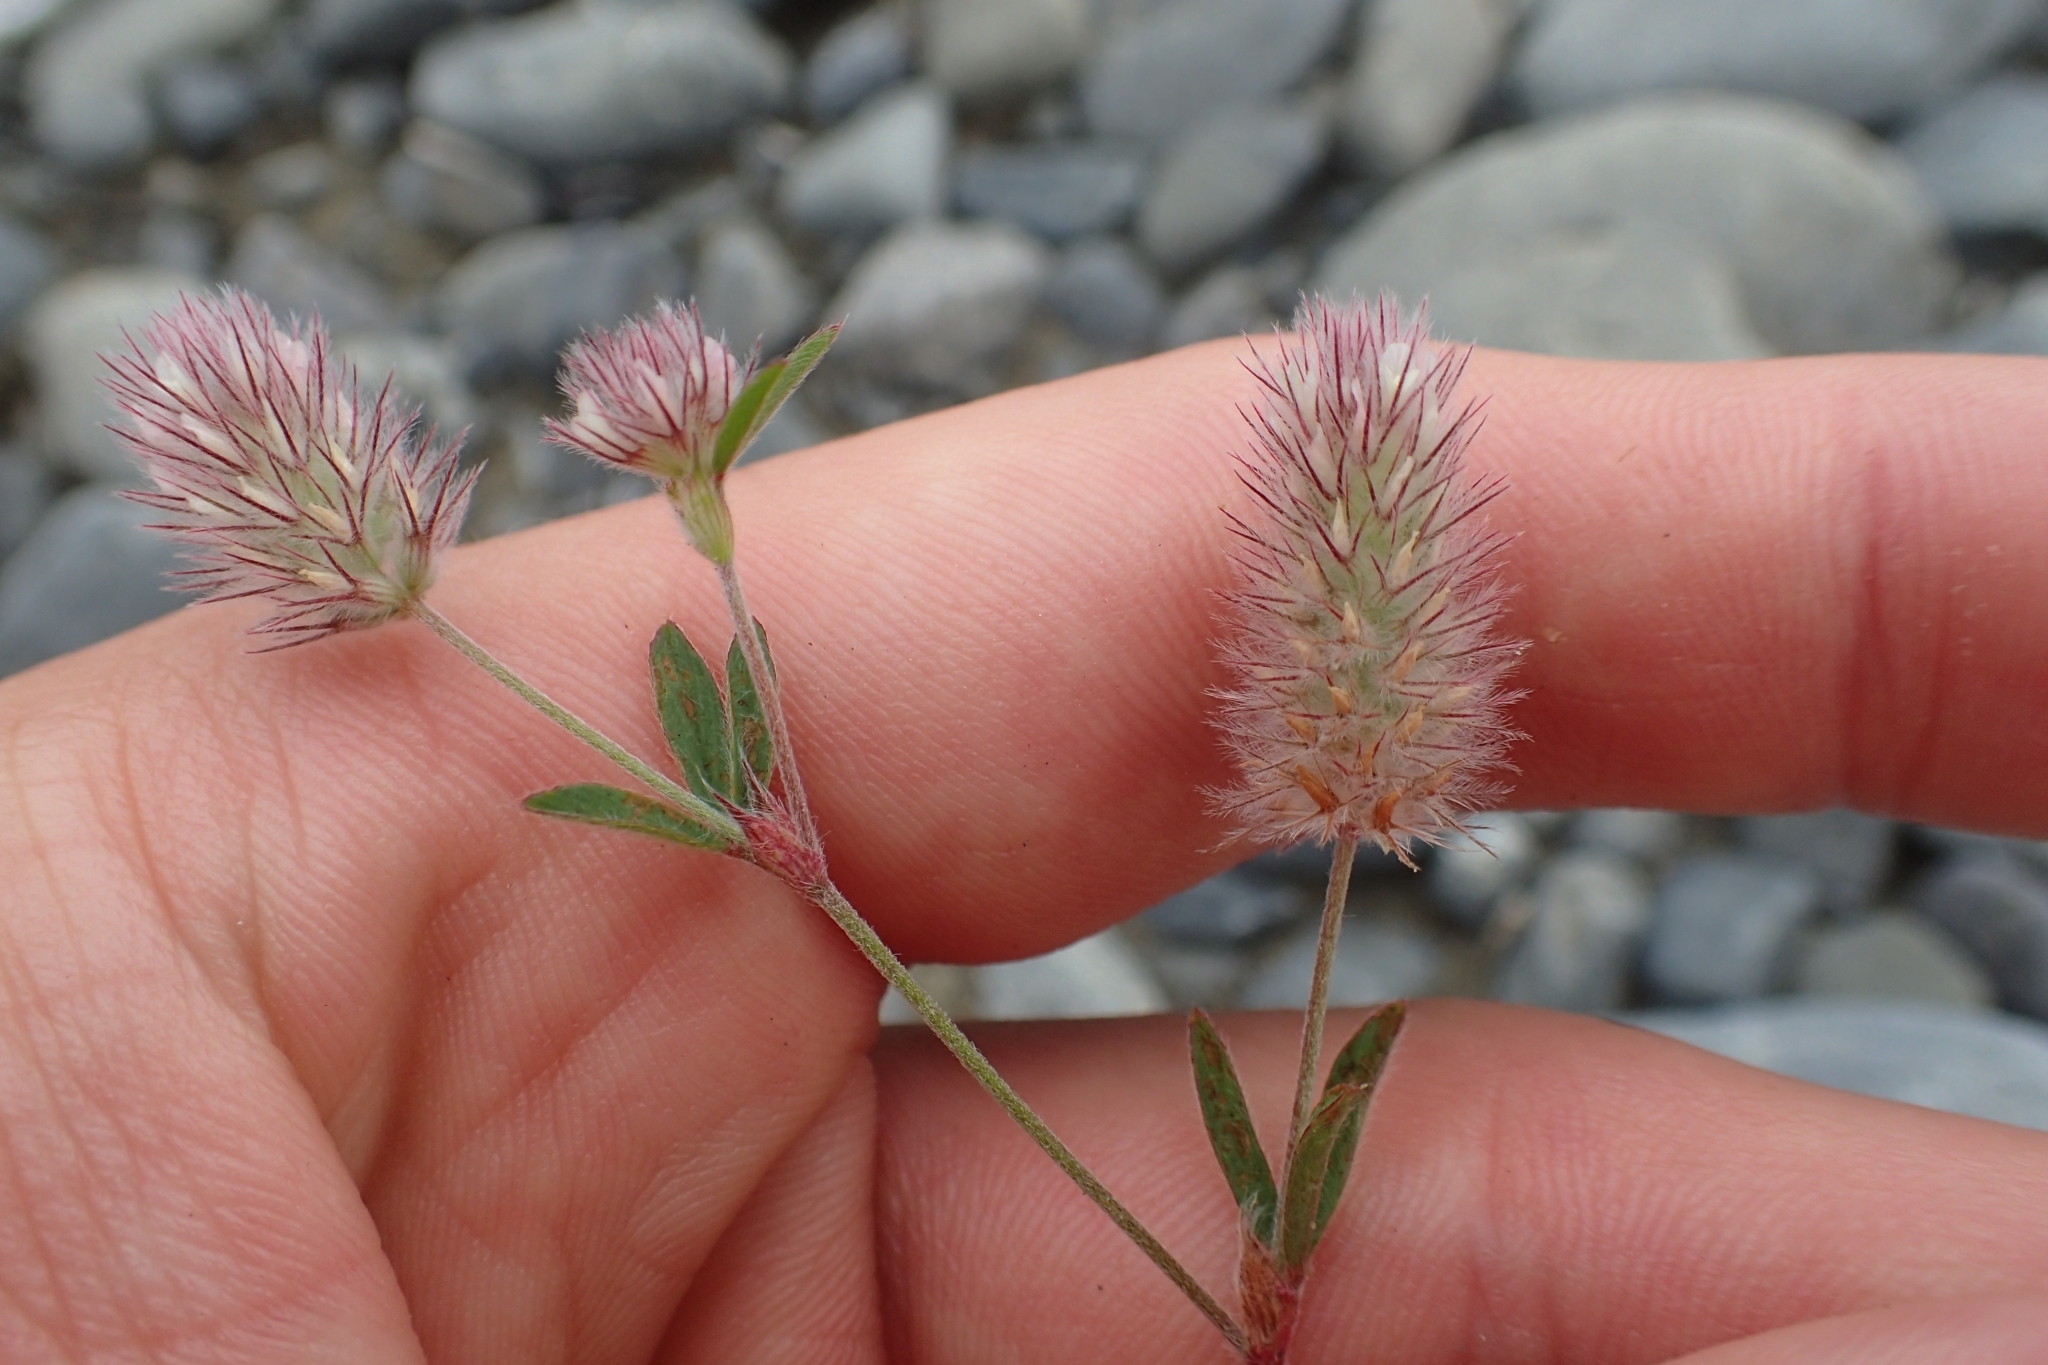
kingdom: Plantae
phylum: Tracheophyta
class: Magnoliopsida
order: Fabales
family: Fabaceae
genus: Trifolium
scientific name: Trifolium arvense
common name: Hare's-foot clover
